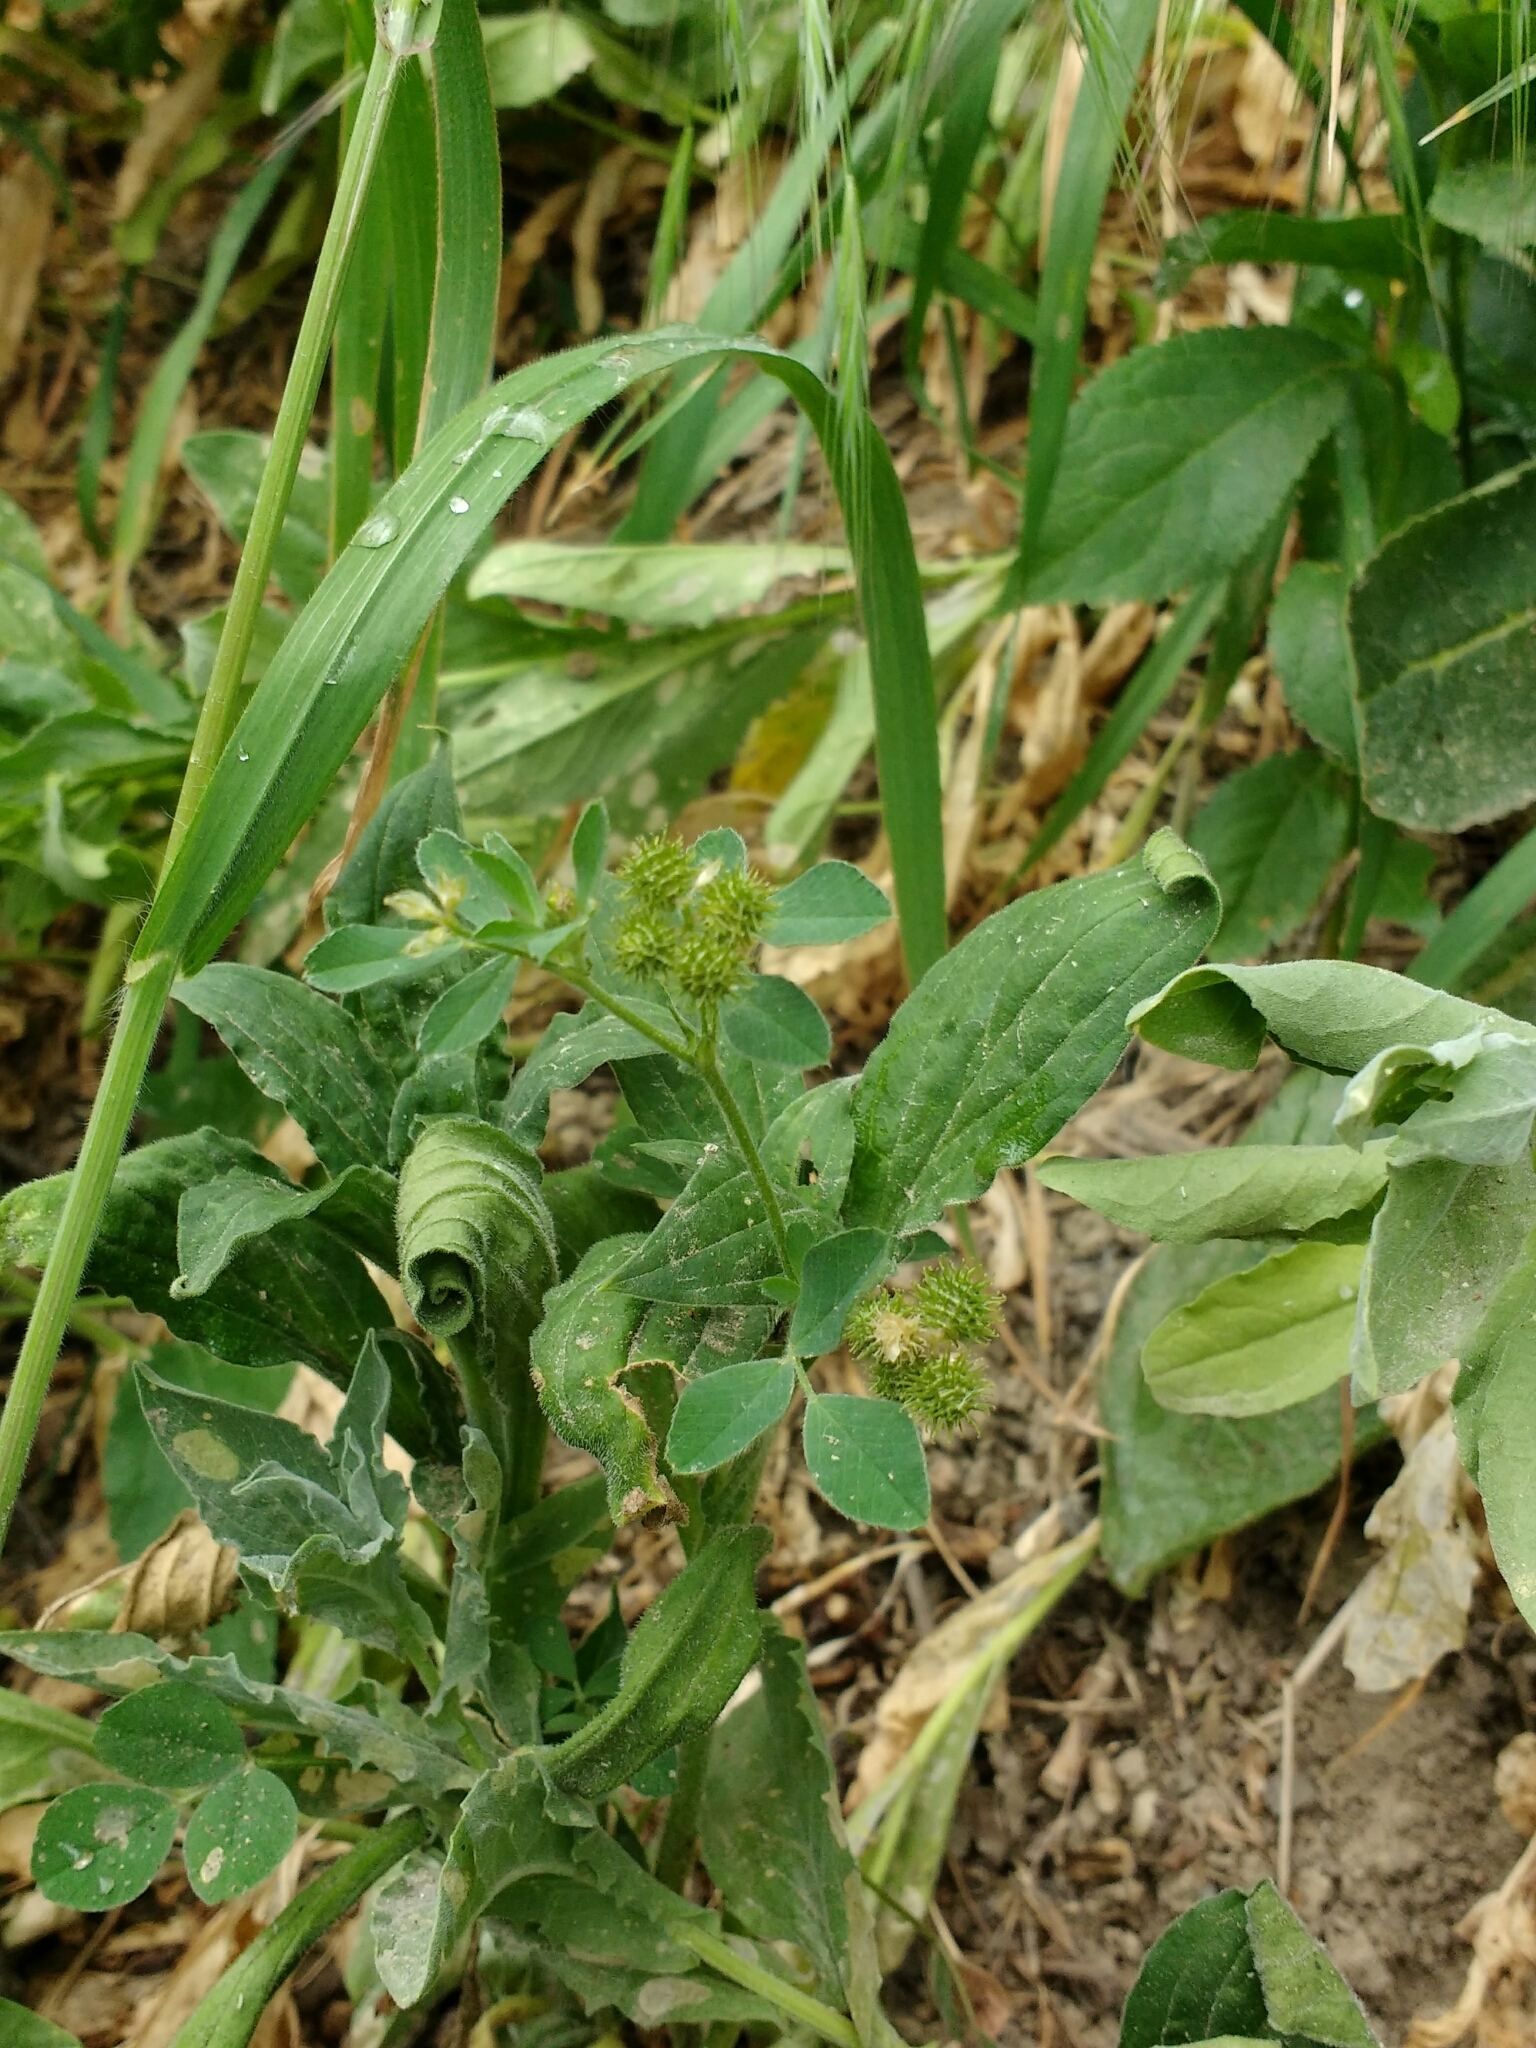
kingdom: Plantae
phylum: Tracheophyta
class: Magnoliopsida
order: Fabales
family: Fabaceae
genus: Medicago
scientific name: Medicago minima
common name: Little bur-clover
